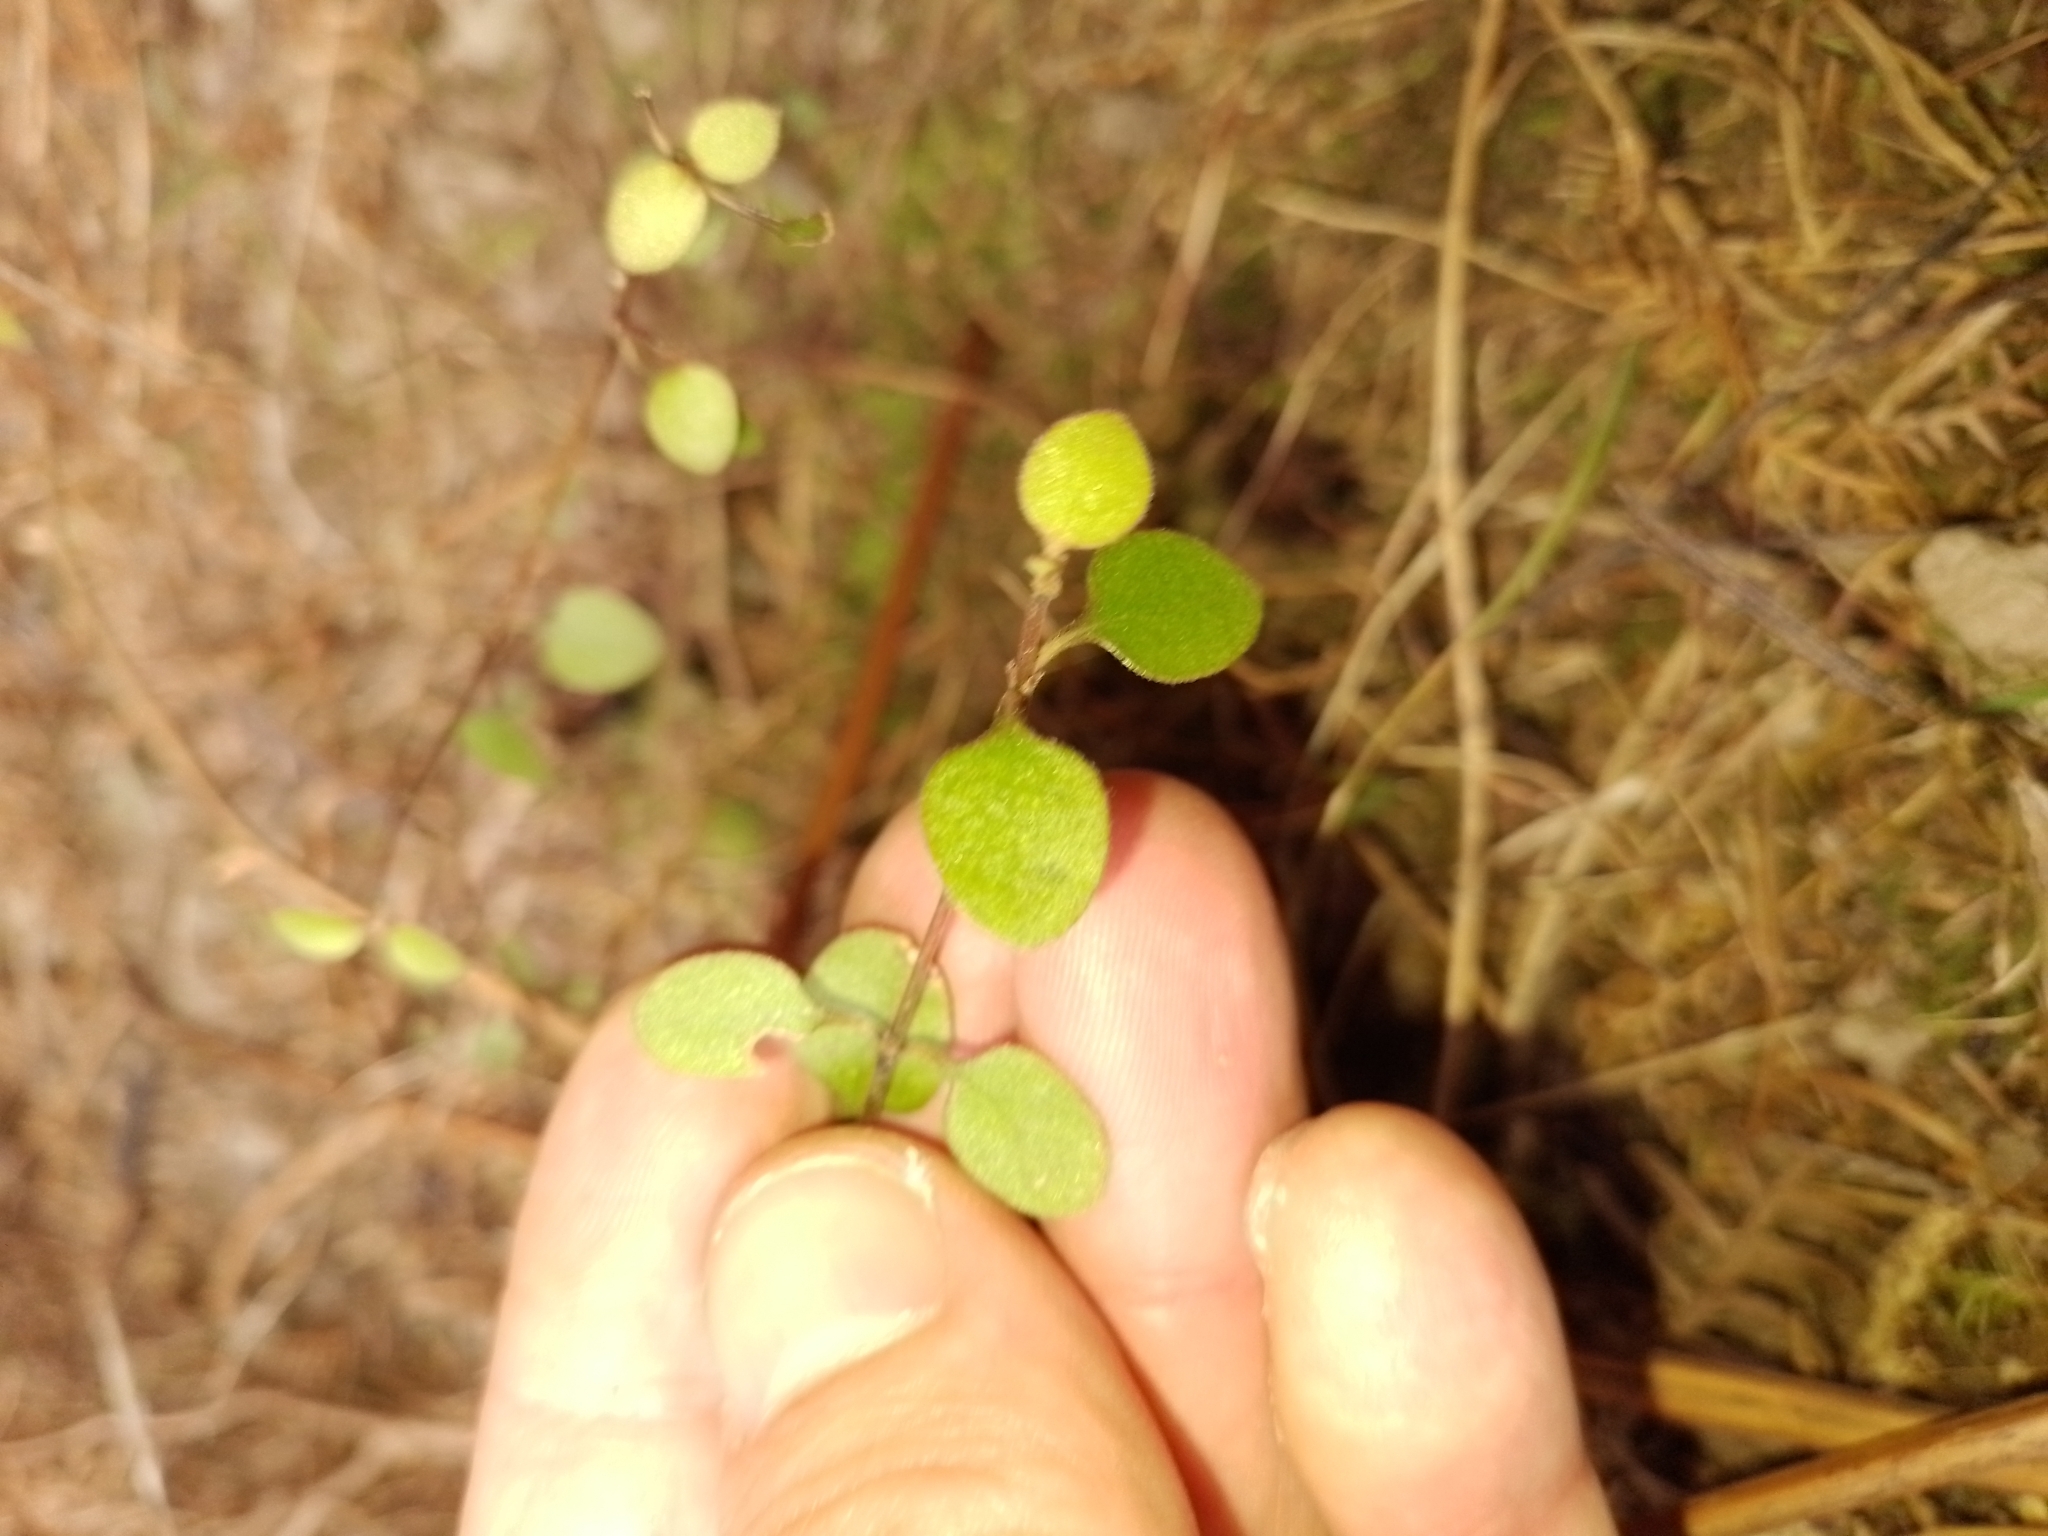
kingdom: Plantae
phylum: Tracheophyta
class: Magnoliopsida
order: Gentianales
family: Rubiaceae
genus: Coprosma
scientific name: Coprosma crassifolia
